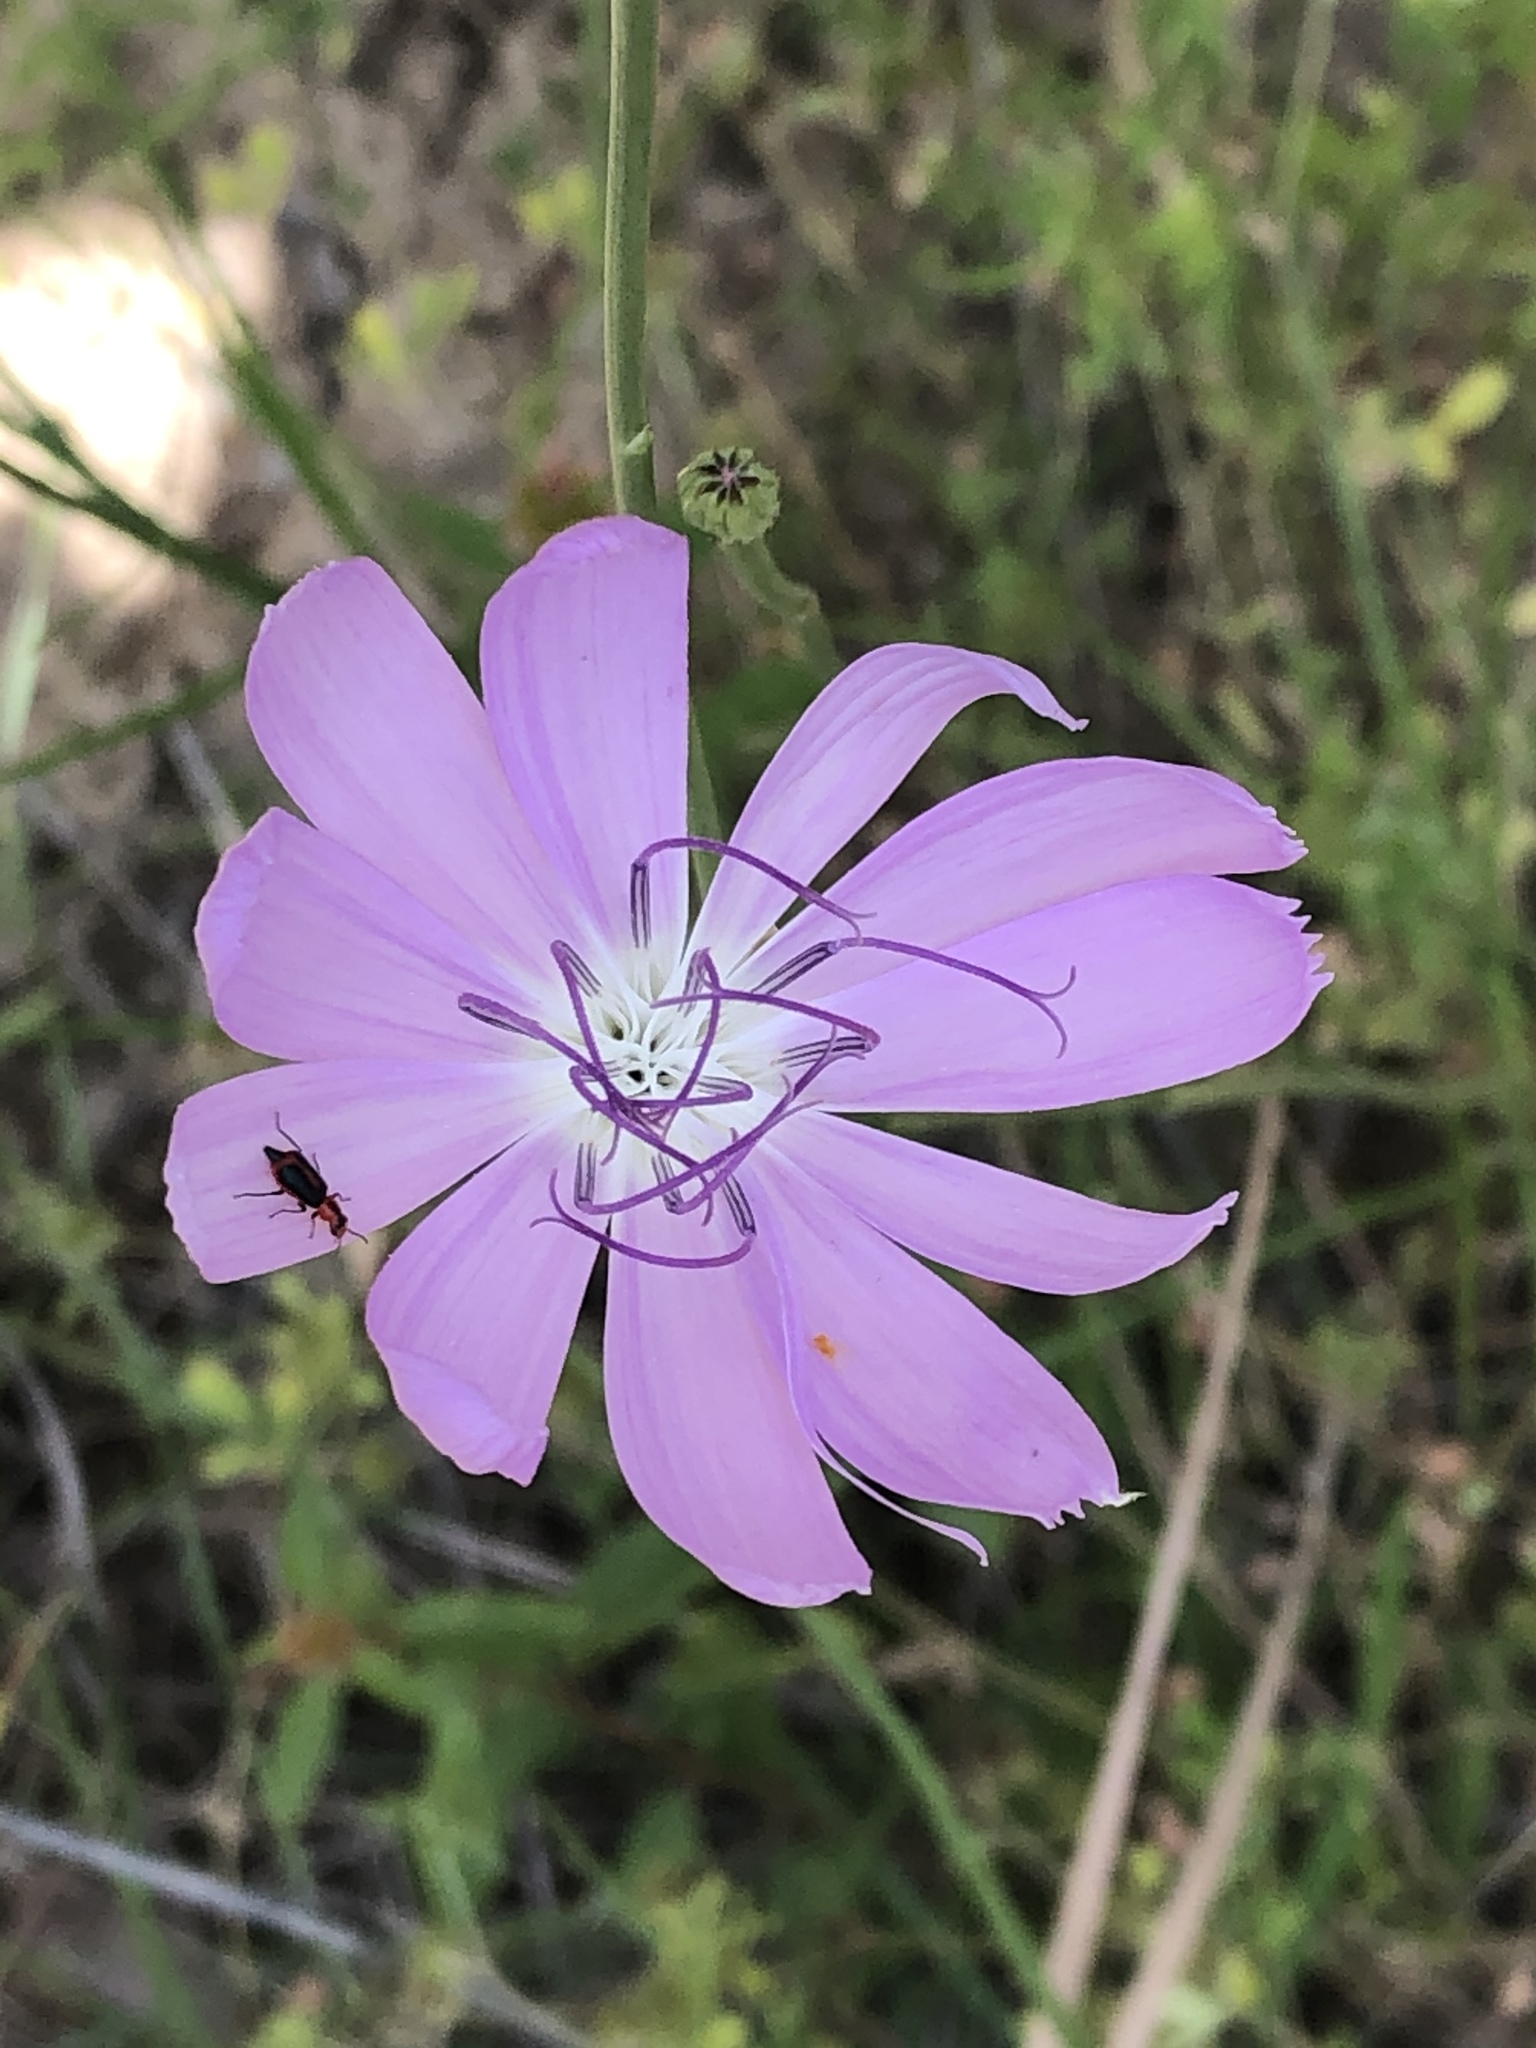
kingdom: Plantae
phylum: Tracheophyta
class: Magnoliopsida
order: Asterales
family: Asteraceae
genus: Lygodesmia
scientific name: Lygodesmia texana
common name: Texas skeleton-plant
